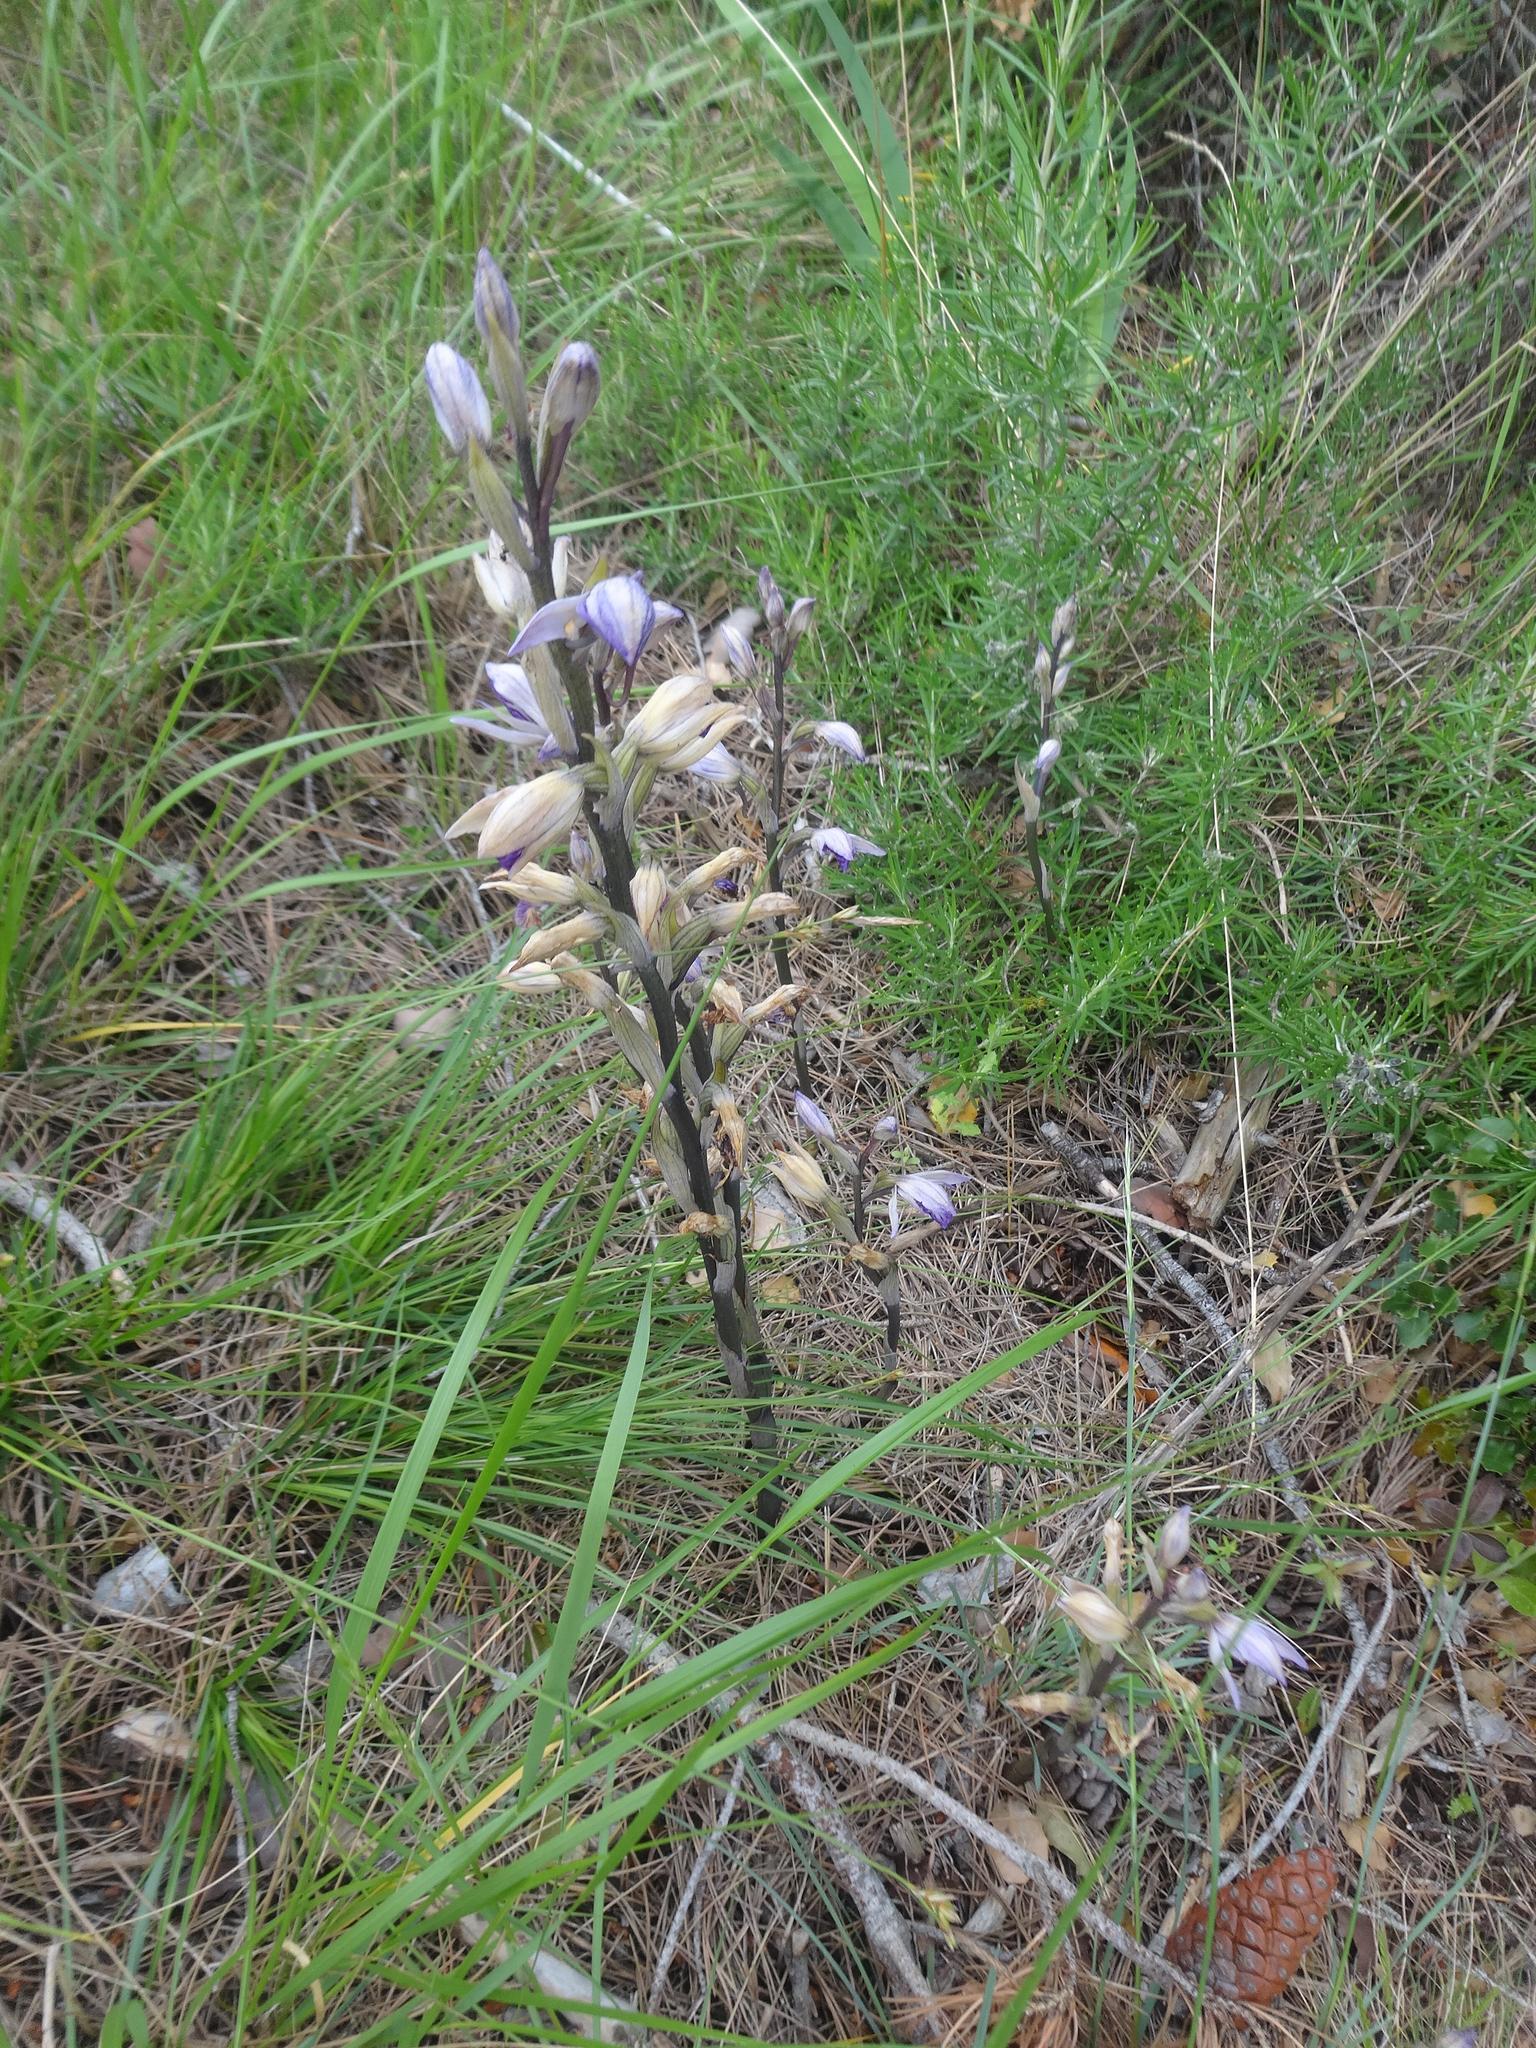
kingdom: Plantae
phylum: Tracheophyta
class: Liliopsida
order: Asparagales
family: Orchidaceae
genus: Limodorum
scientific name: Limodorum abortivum
